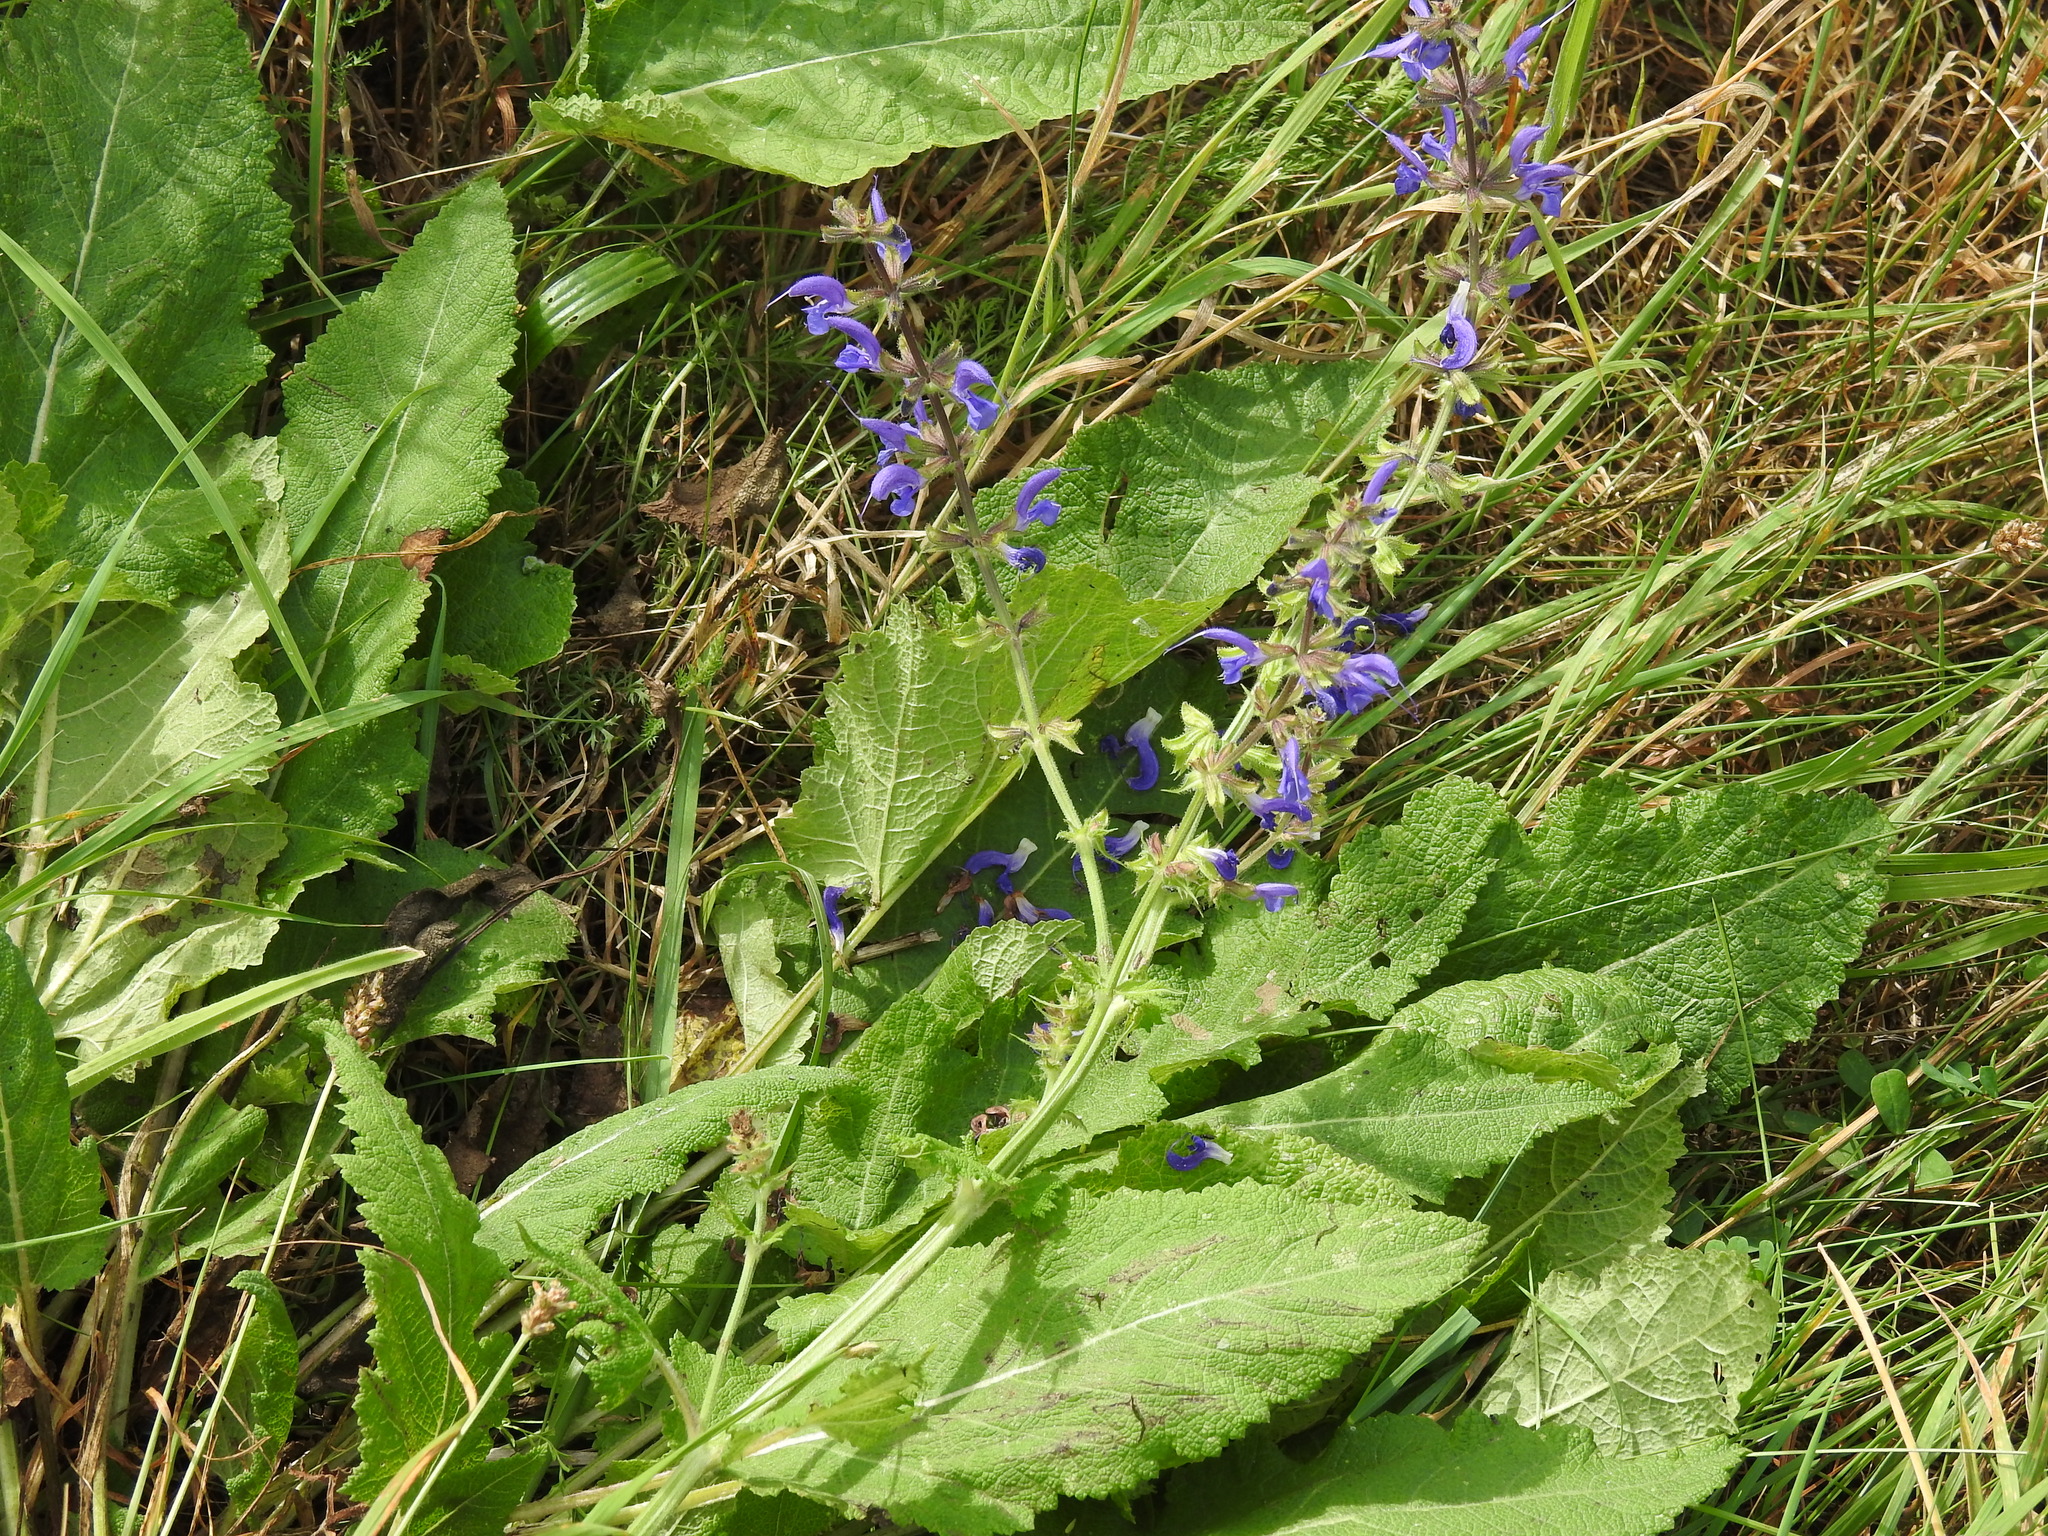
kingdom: Plantae
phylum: Tracheophyta
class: Magnoliopsida
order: Lamiales
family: Lamiaceae
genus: Salvia
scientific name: Salvia pratensis
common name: Meadow sage
